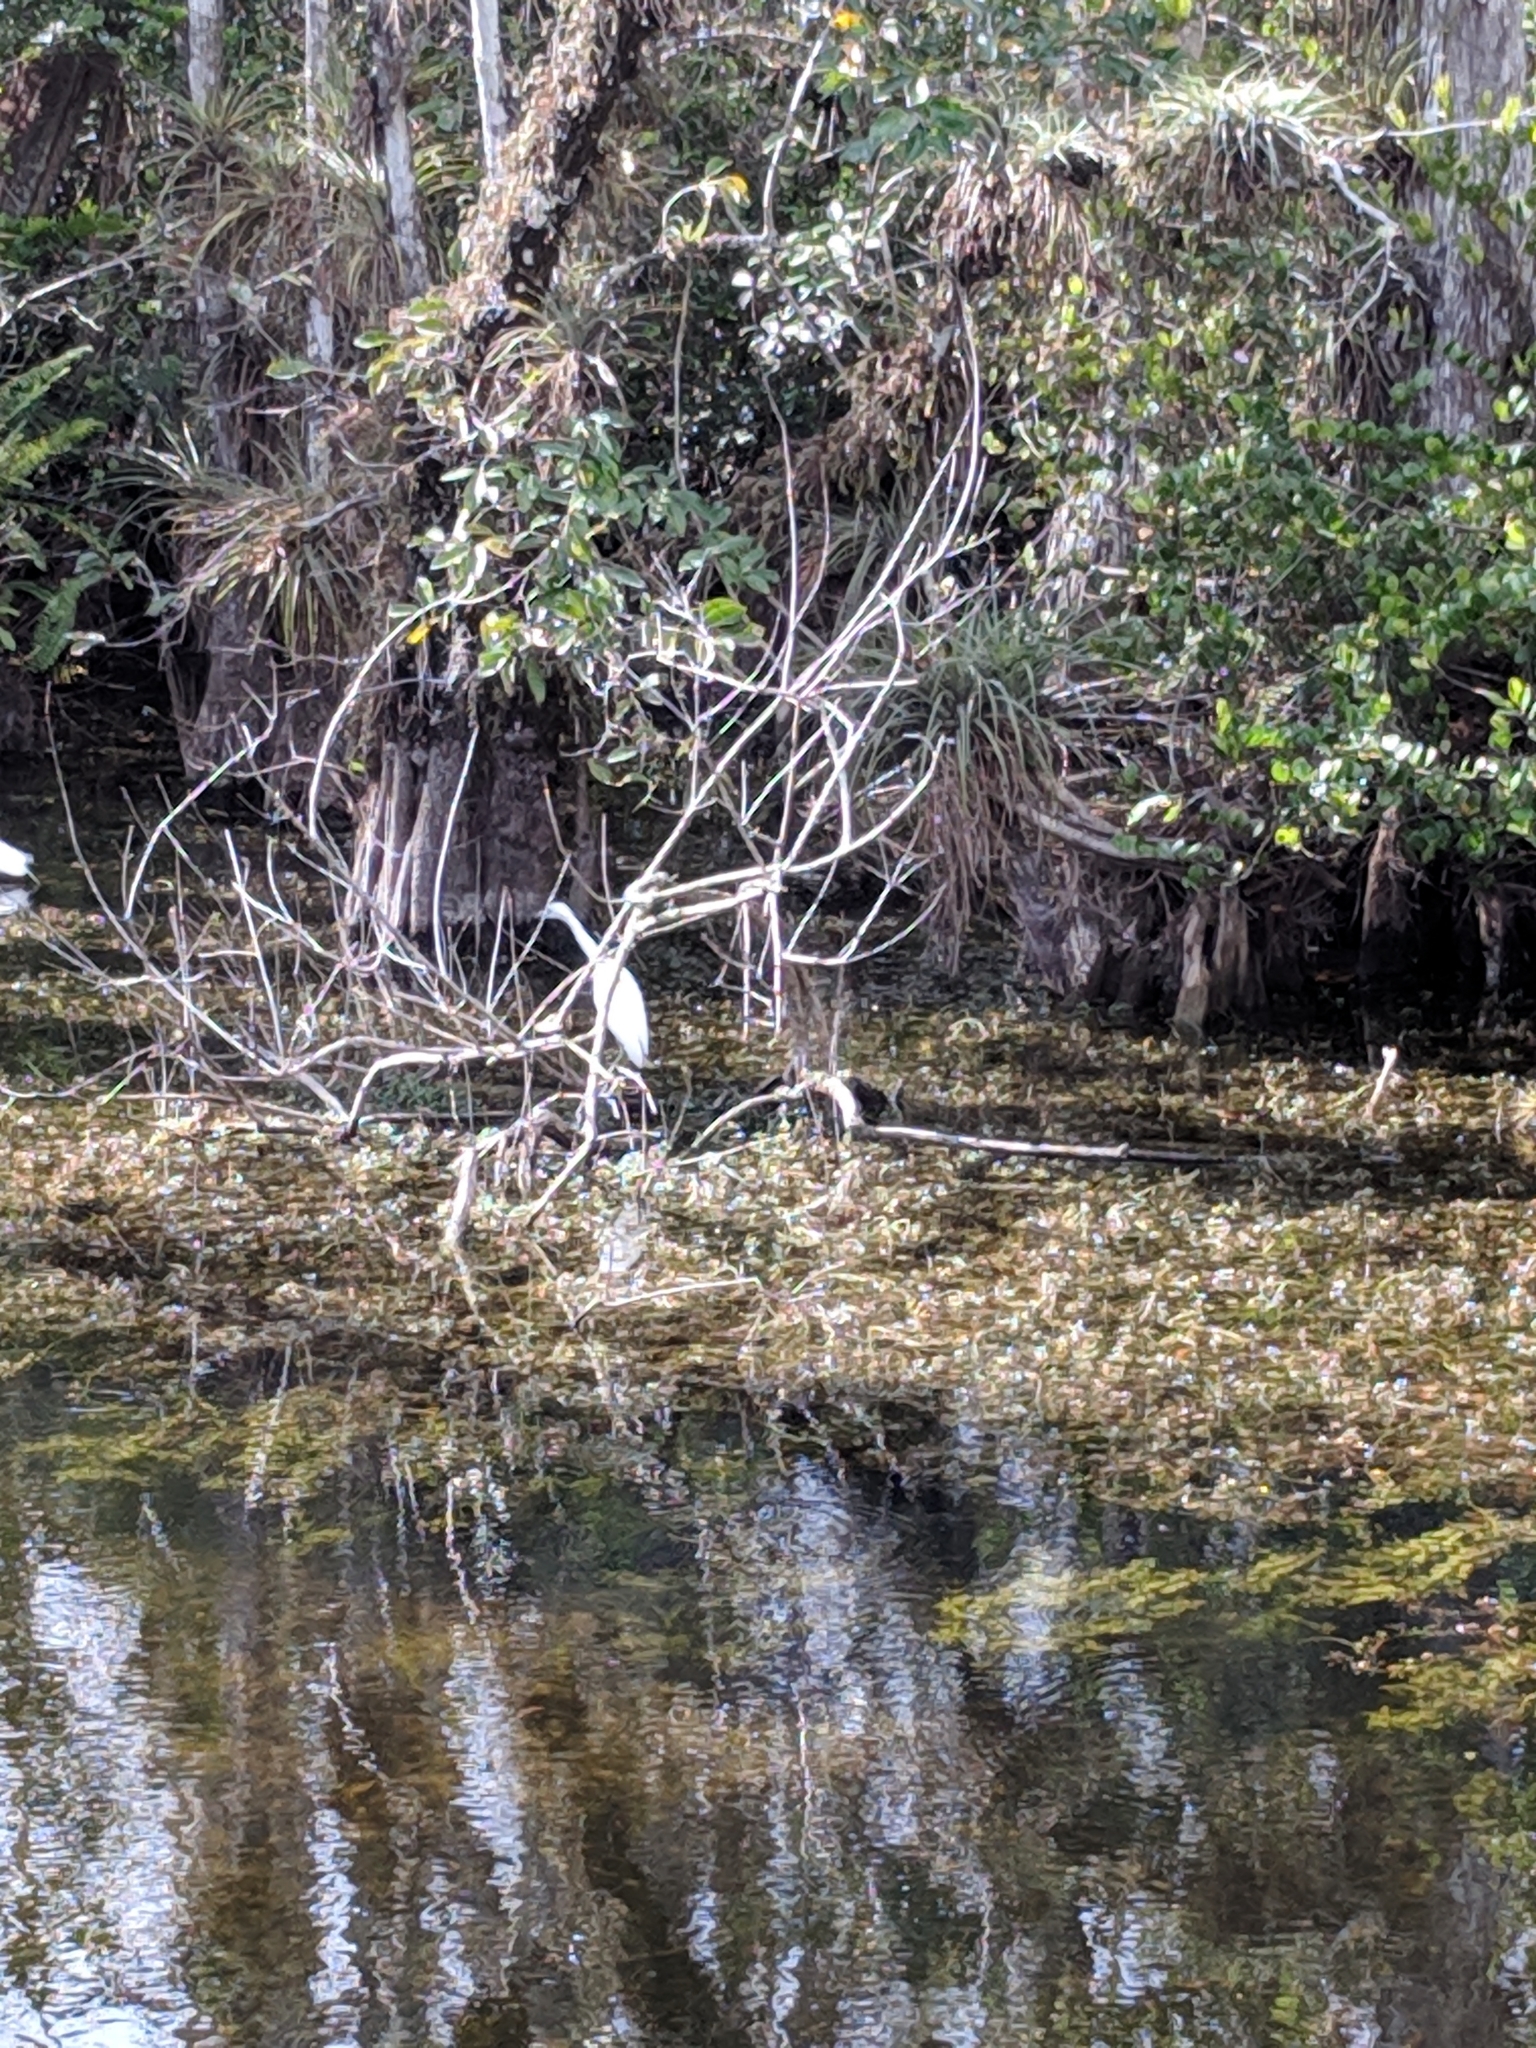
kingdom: Animalia
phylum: Chordata
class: Aves
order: Pelecaniformes
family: Ardeidae
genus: Egretta
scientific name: Egretta caerulea
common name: Little blue heron
